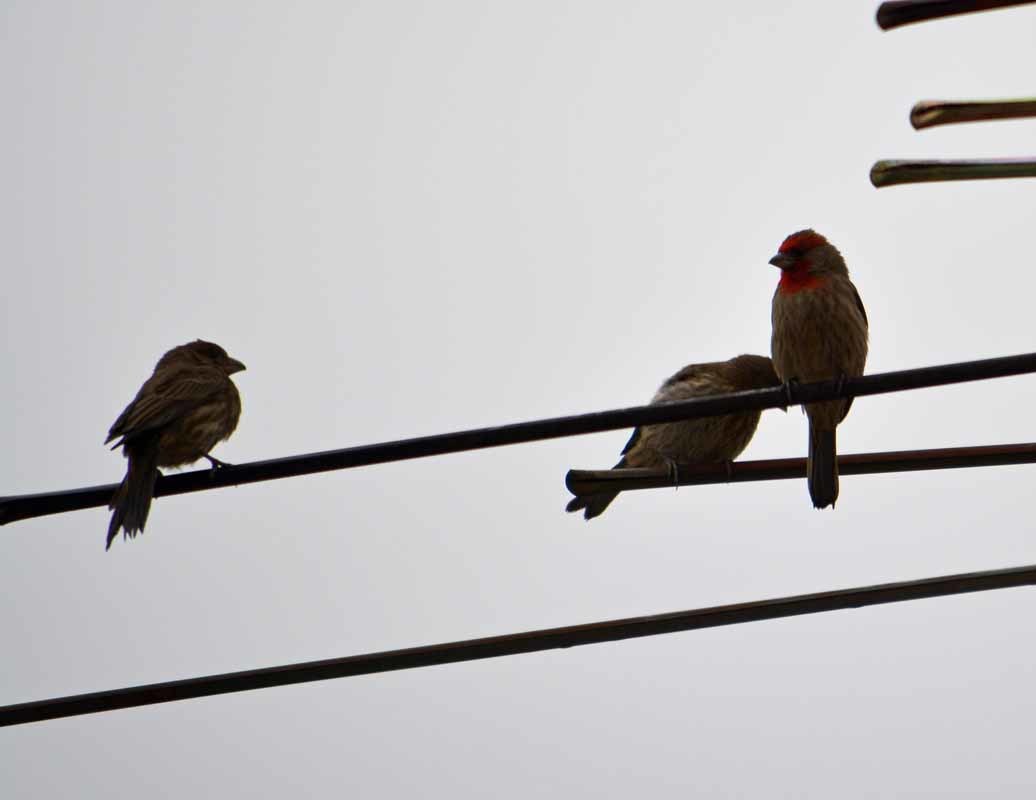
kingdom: Animalia
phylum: Chordata
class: Aves
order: Passeriformes
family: Fringillidae
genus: Haemorhous
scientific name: Haemorhous mexicanus
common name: House finch
